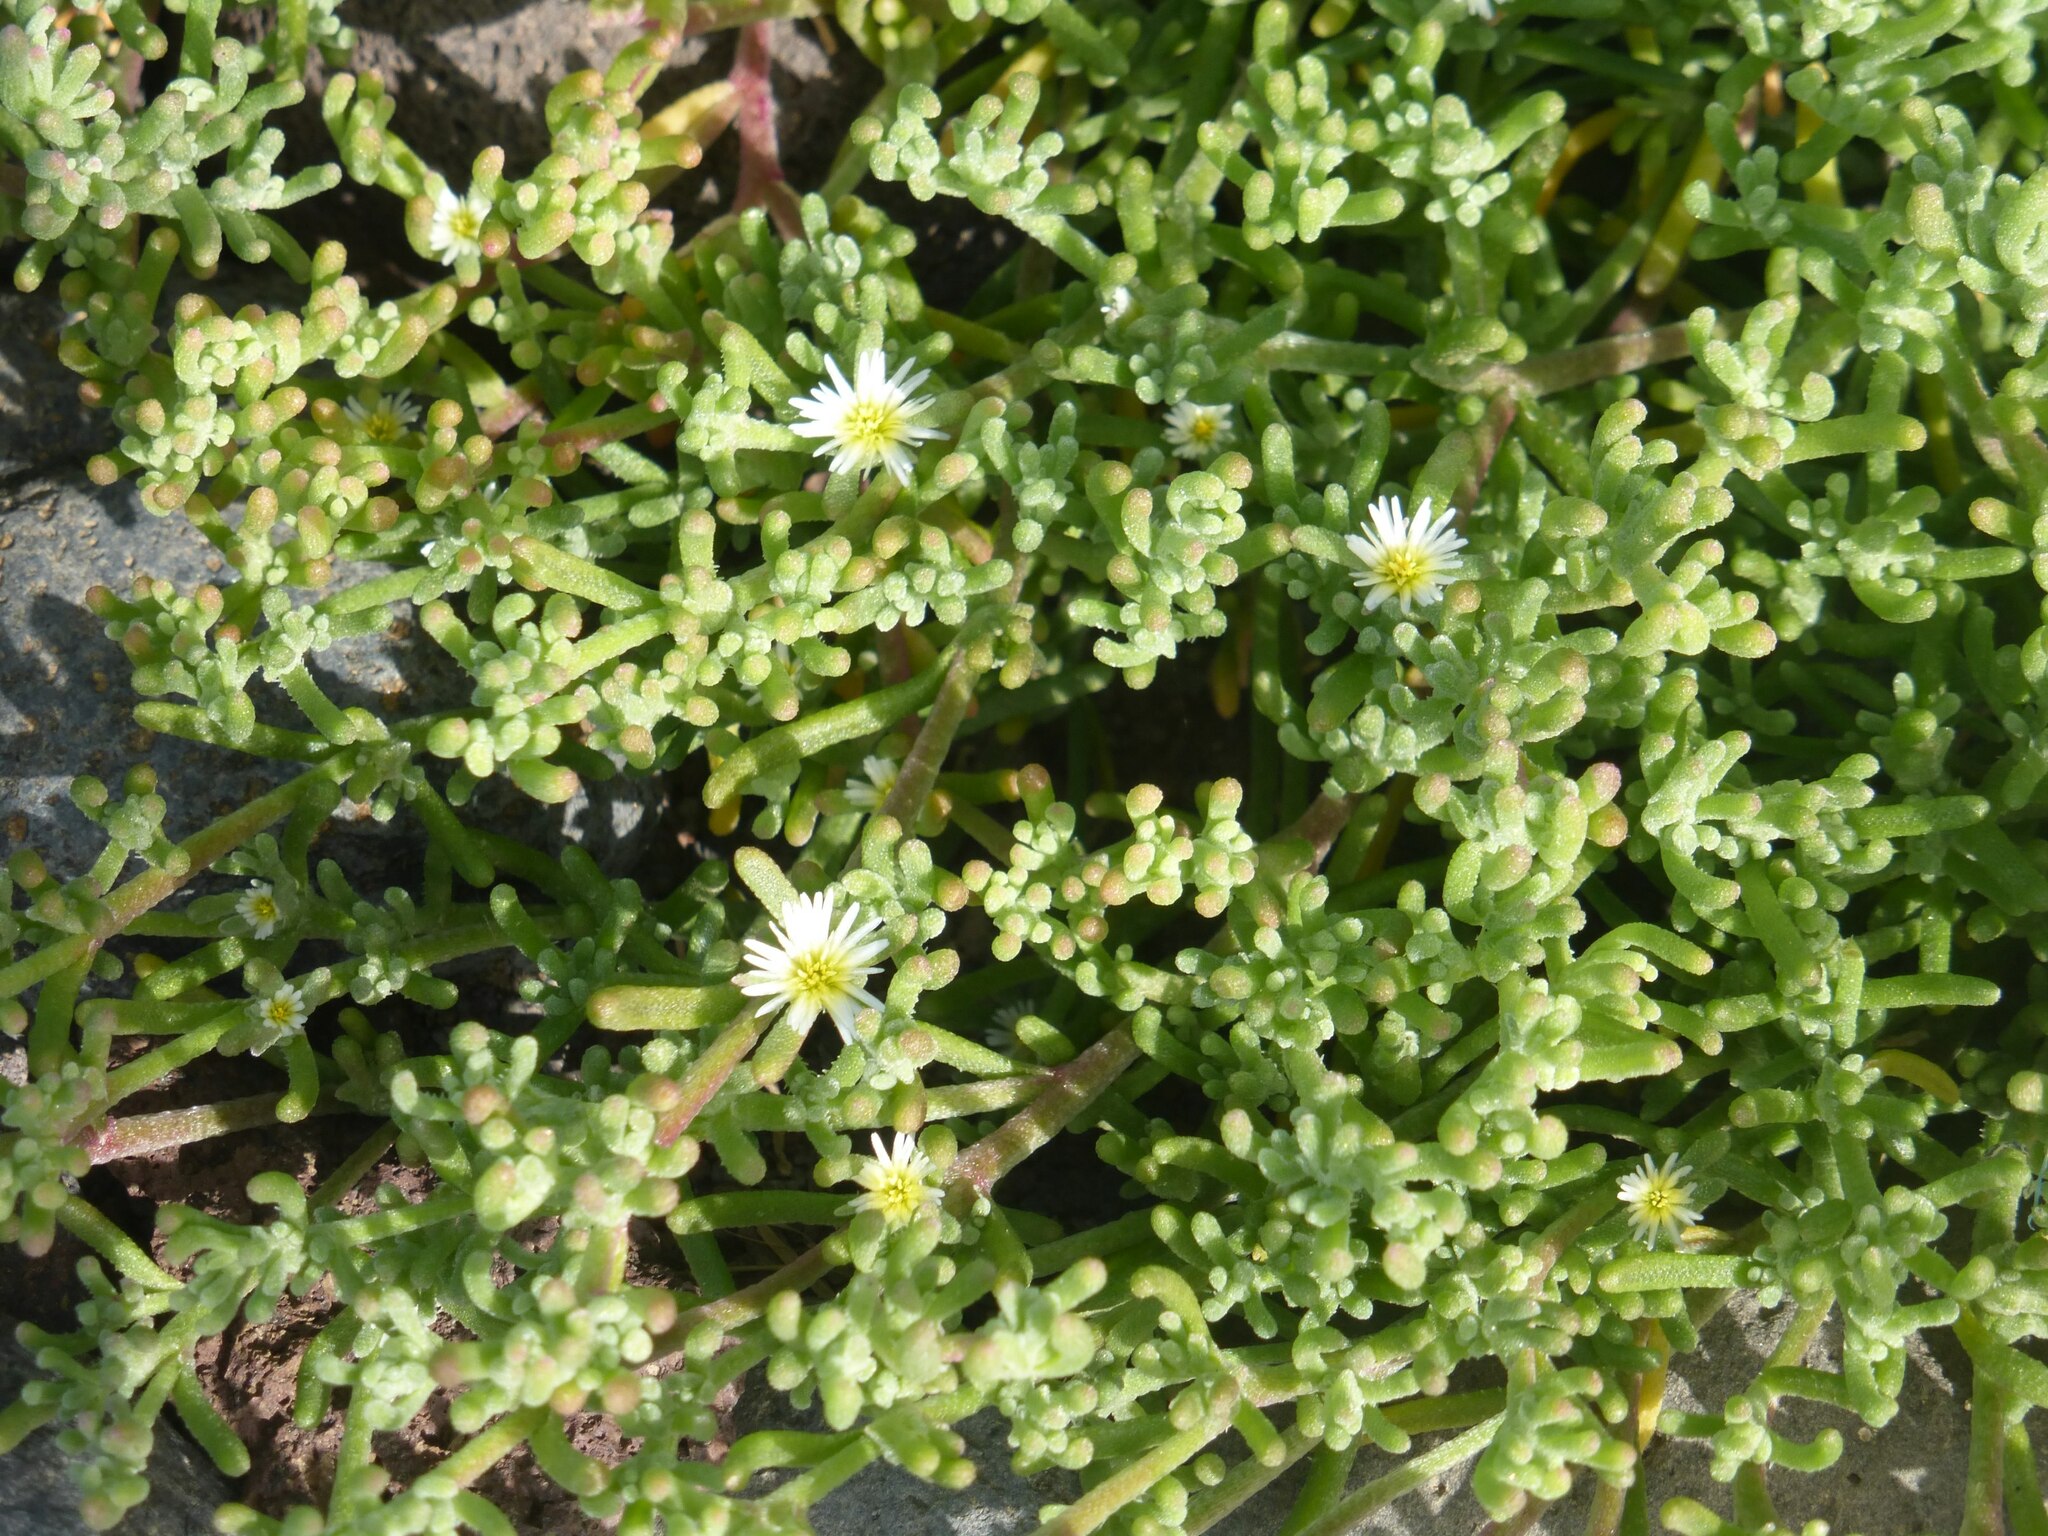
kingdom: Plantae
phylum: Tracheophyta
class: Magnoliopsida
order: Caryophyllales
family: Aizoaceae
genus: Mesembryanthemum
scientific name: Mesembryanthemum nodiflorum
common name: Slenderleaf iceplant
